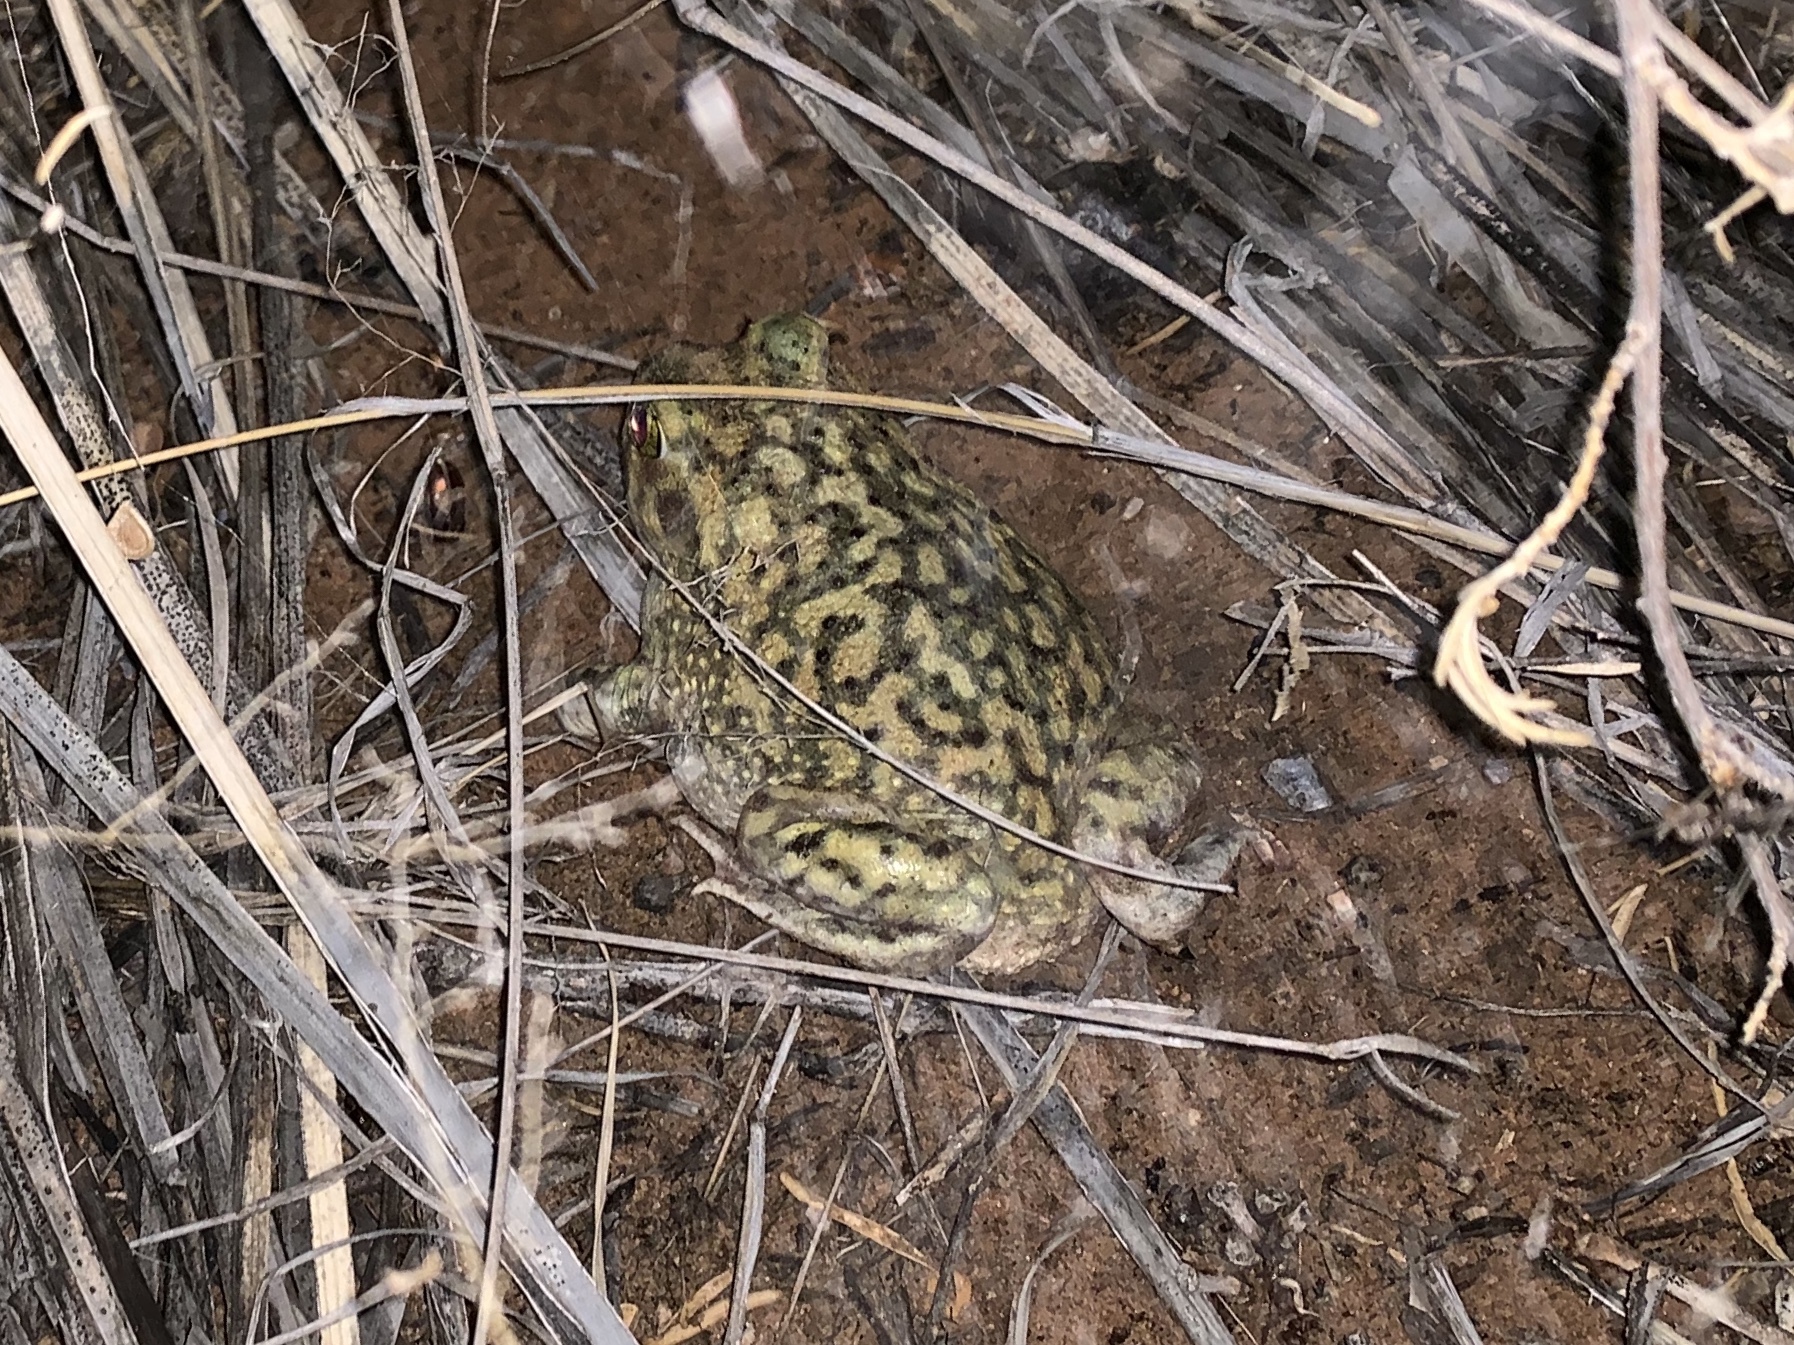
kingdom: Animalia
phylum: Chordata
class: Amphibia
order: Anura
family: Scaphiopodidae
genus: Scaphiopus
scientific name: Scaphiopus couchii
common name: Couch's spadefoot toad
